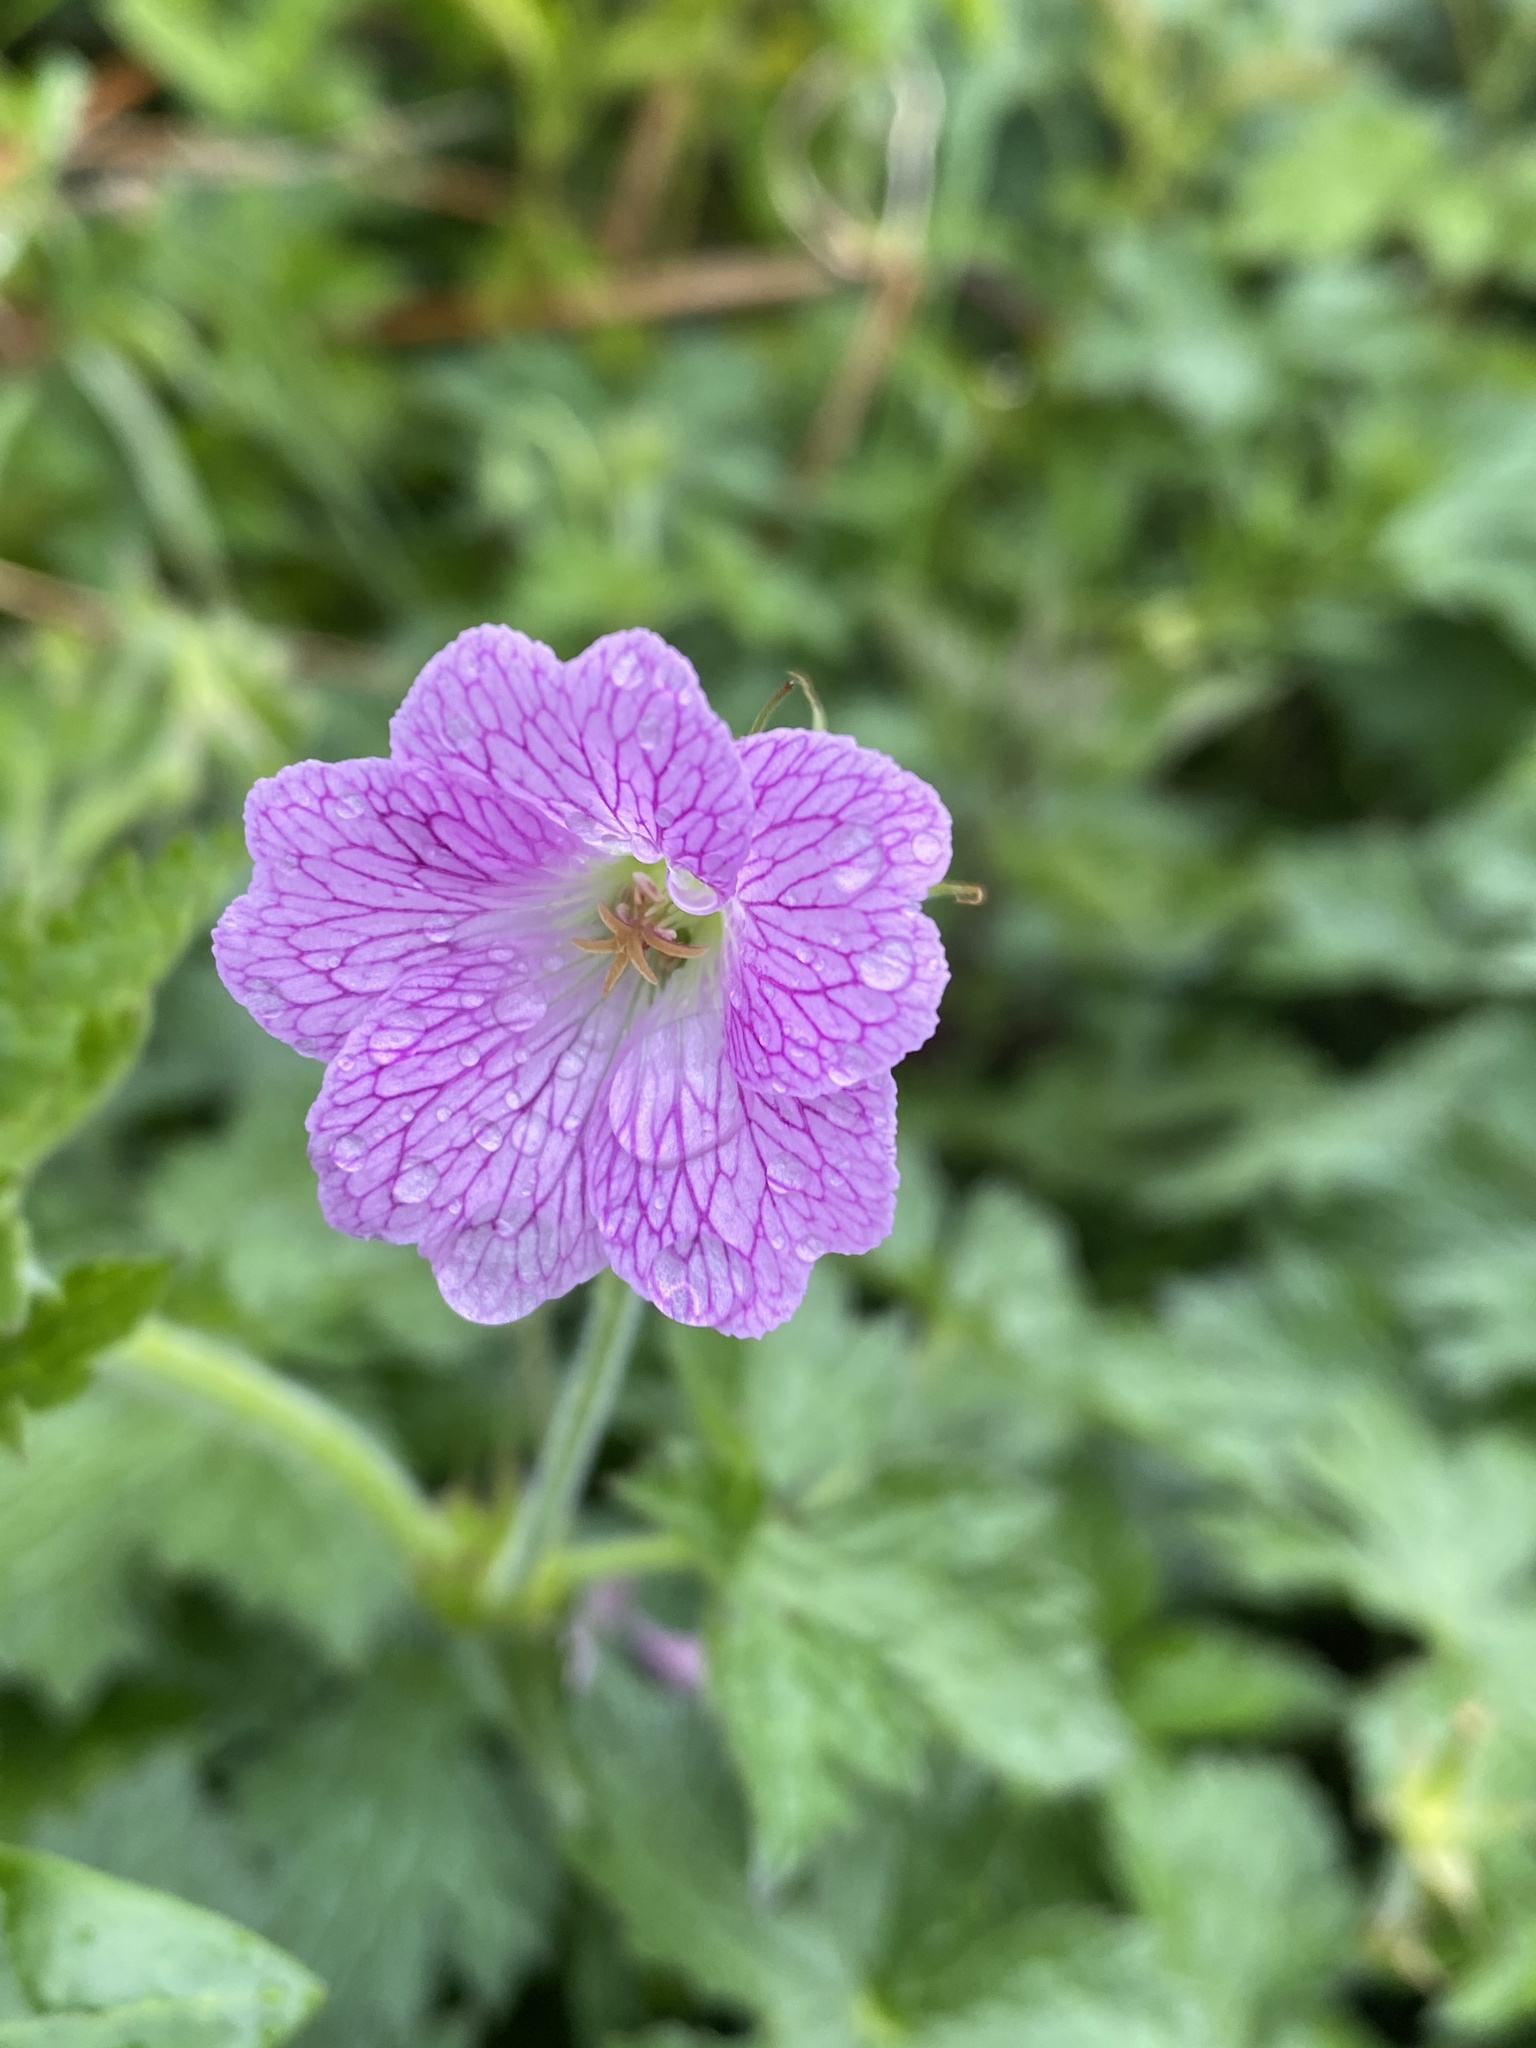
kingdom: Plantae
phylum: Tracheophyta
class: Magnoliopsida
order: Geraniales
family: Geraniaceae
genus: Geranium
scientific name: Geranium oxonianum
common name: Druce's crane's-bill
